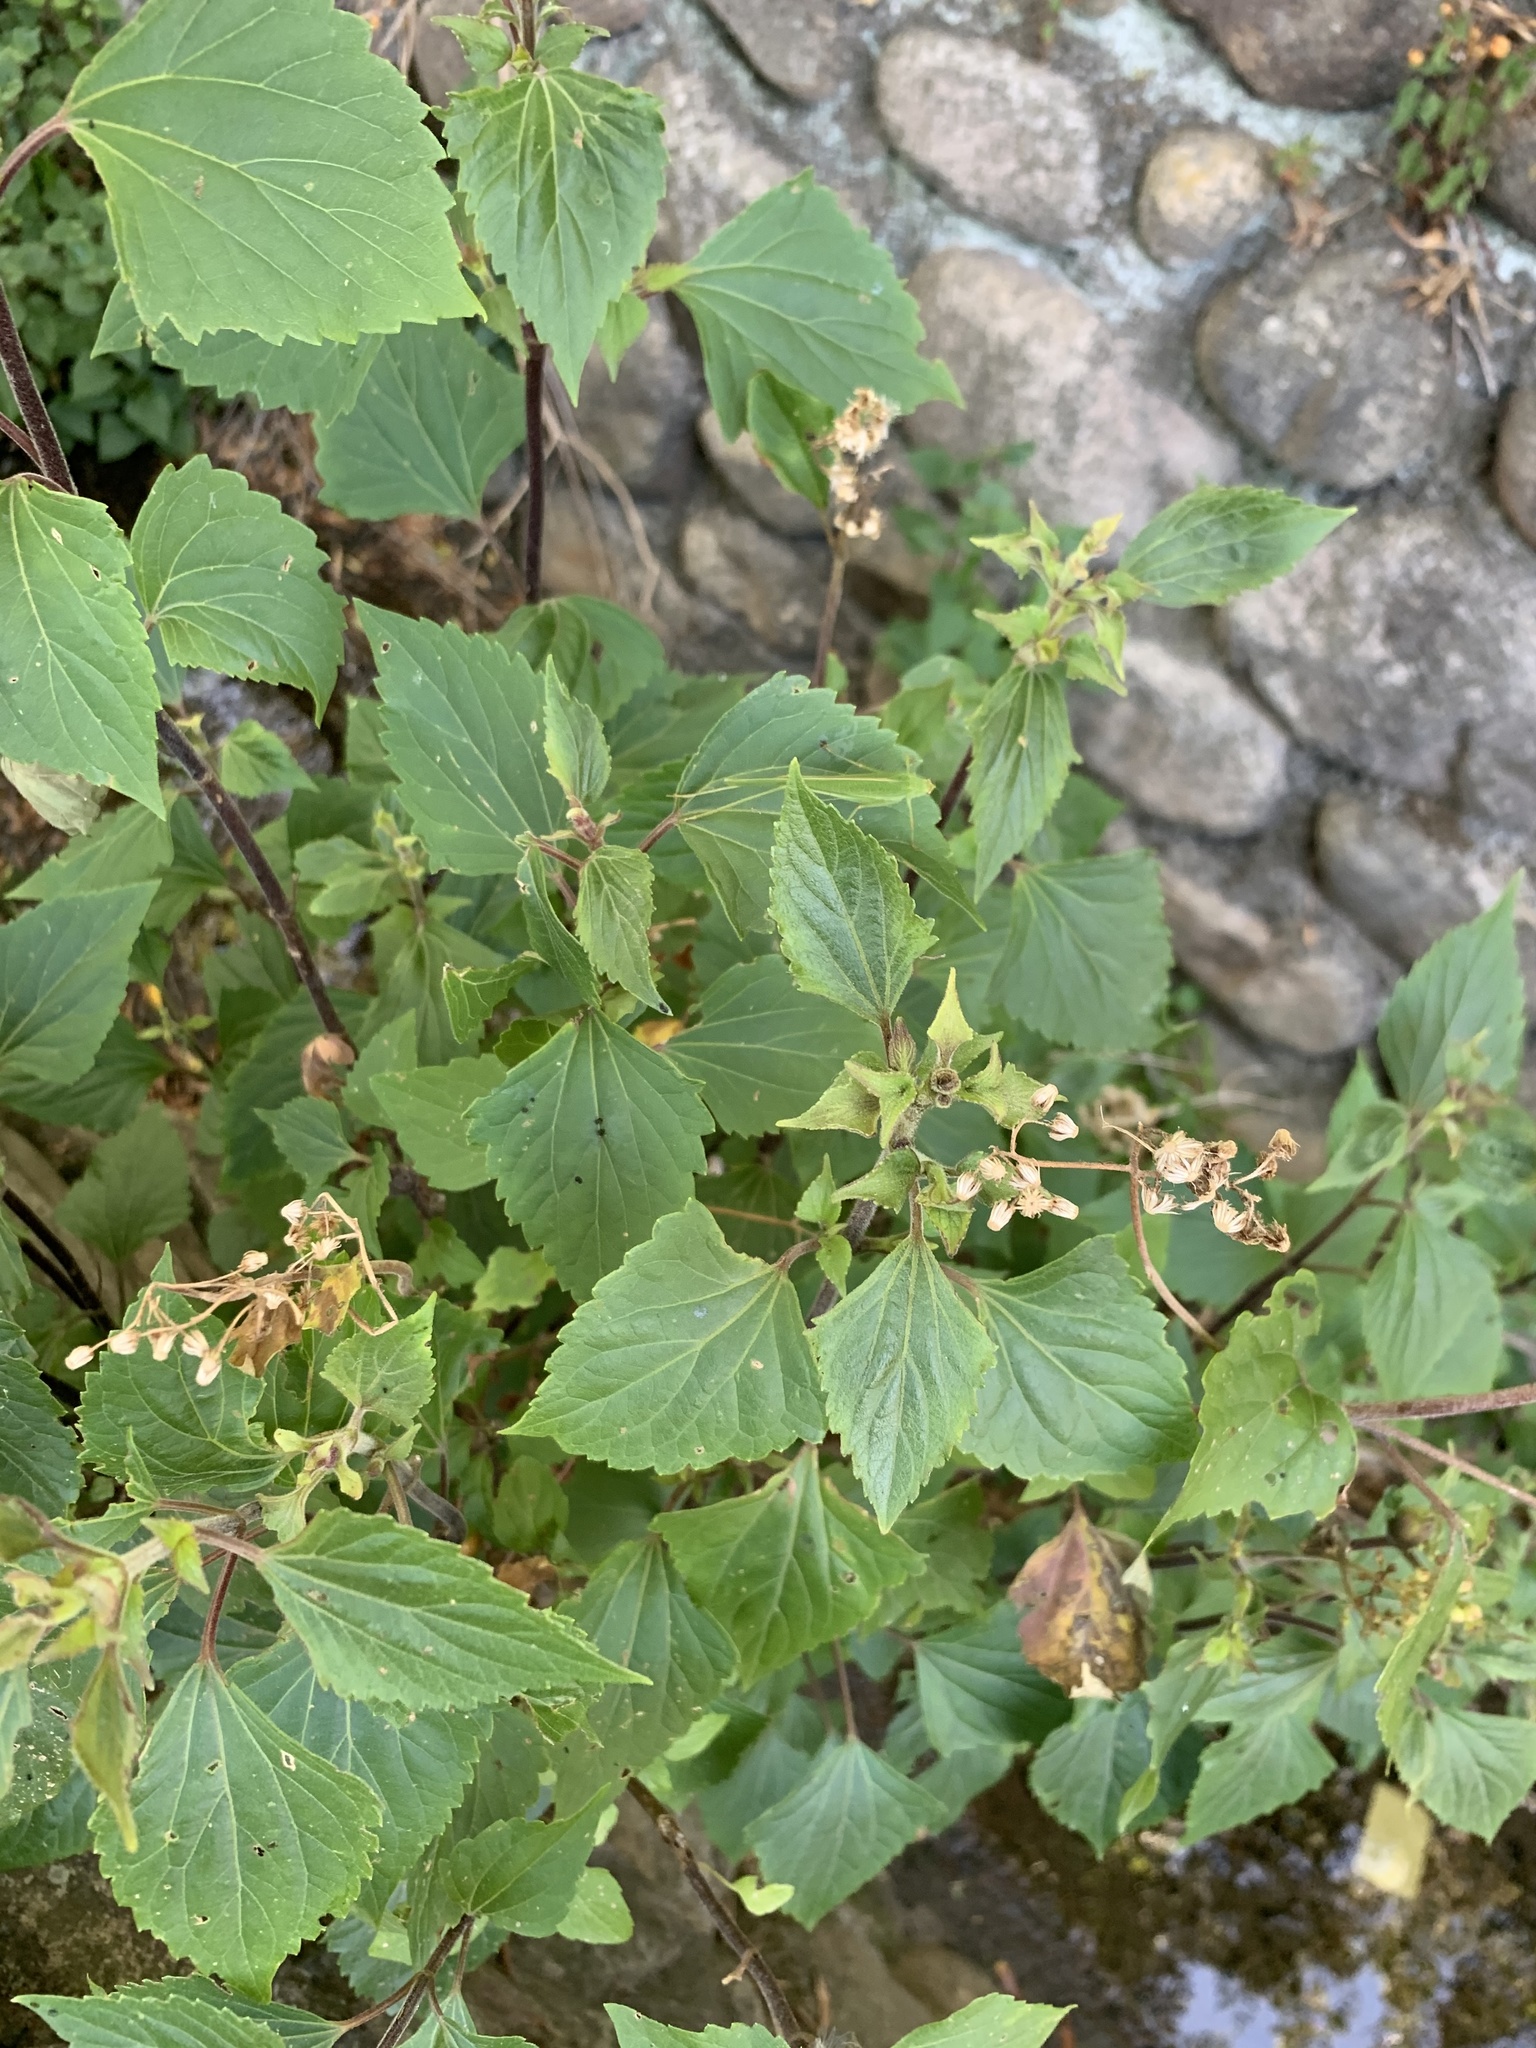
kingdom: Plantae
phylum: Tracheophyta
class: Magnoliopsida
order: Asterales
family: Asteraceae
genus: Ageratina
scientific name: Ageratina adenophora
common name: Sticky snakeroot
